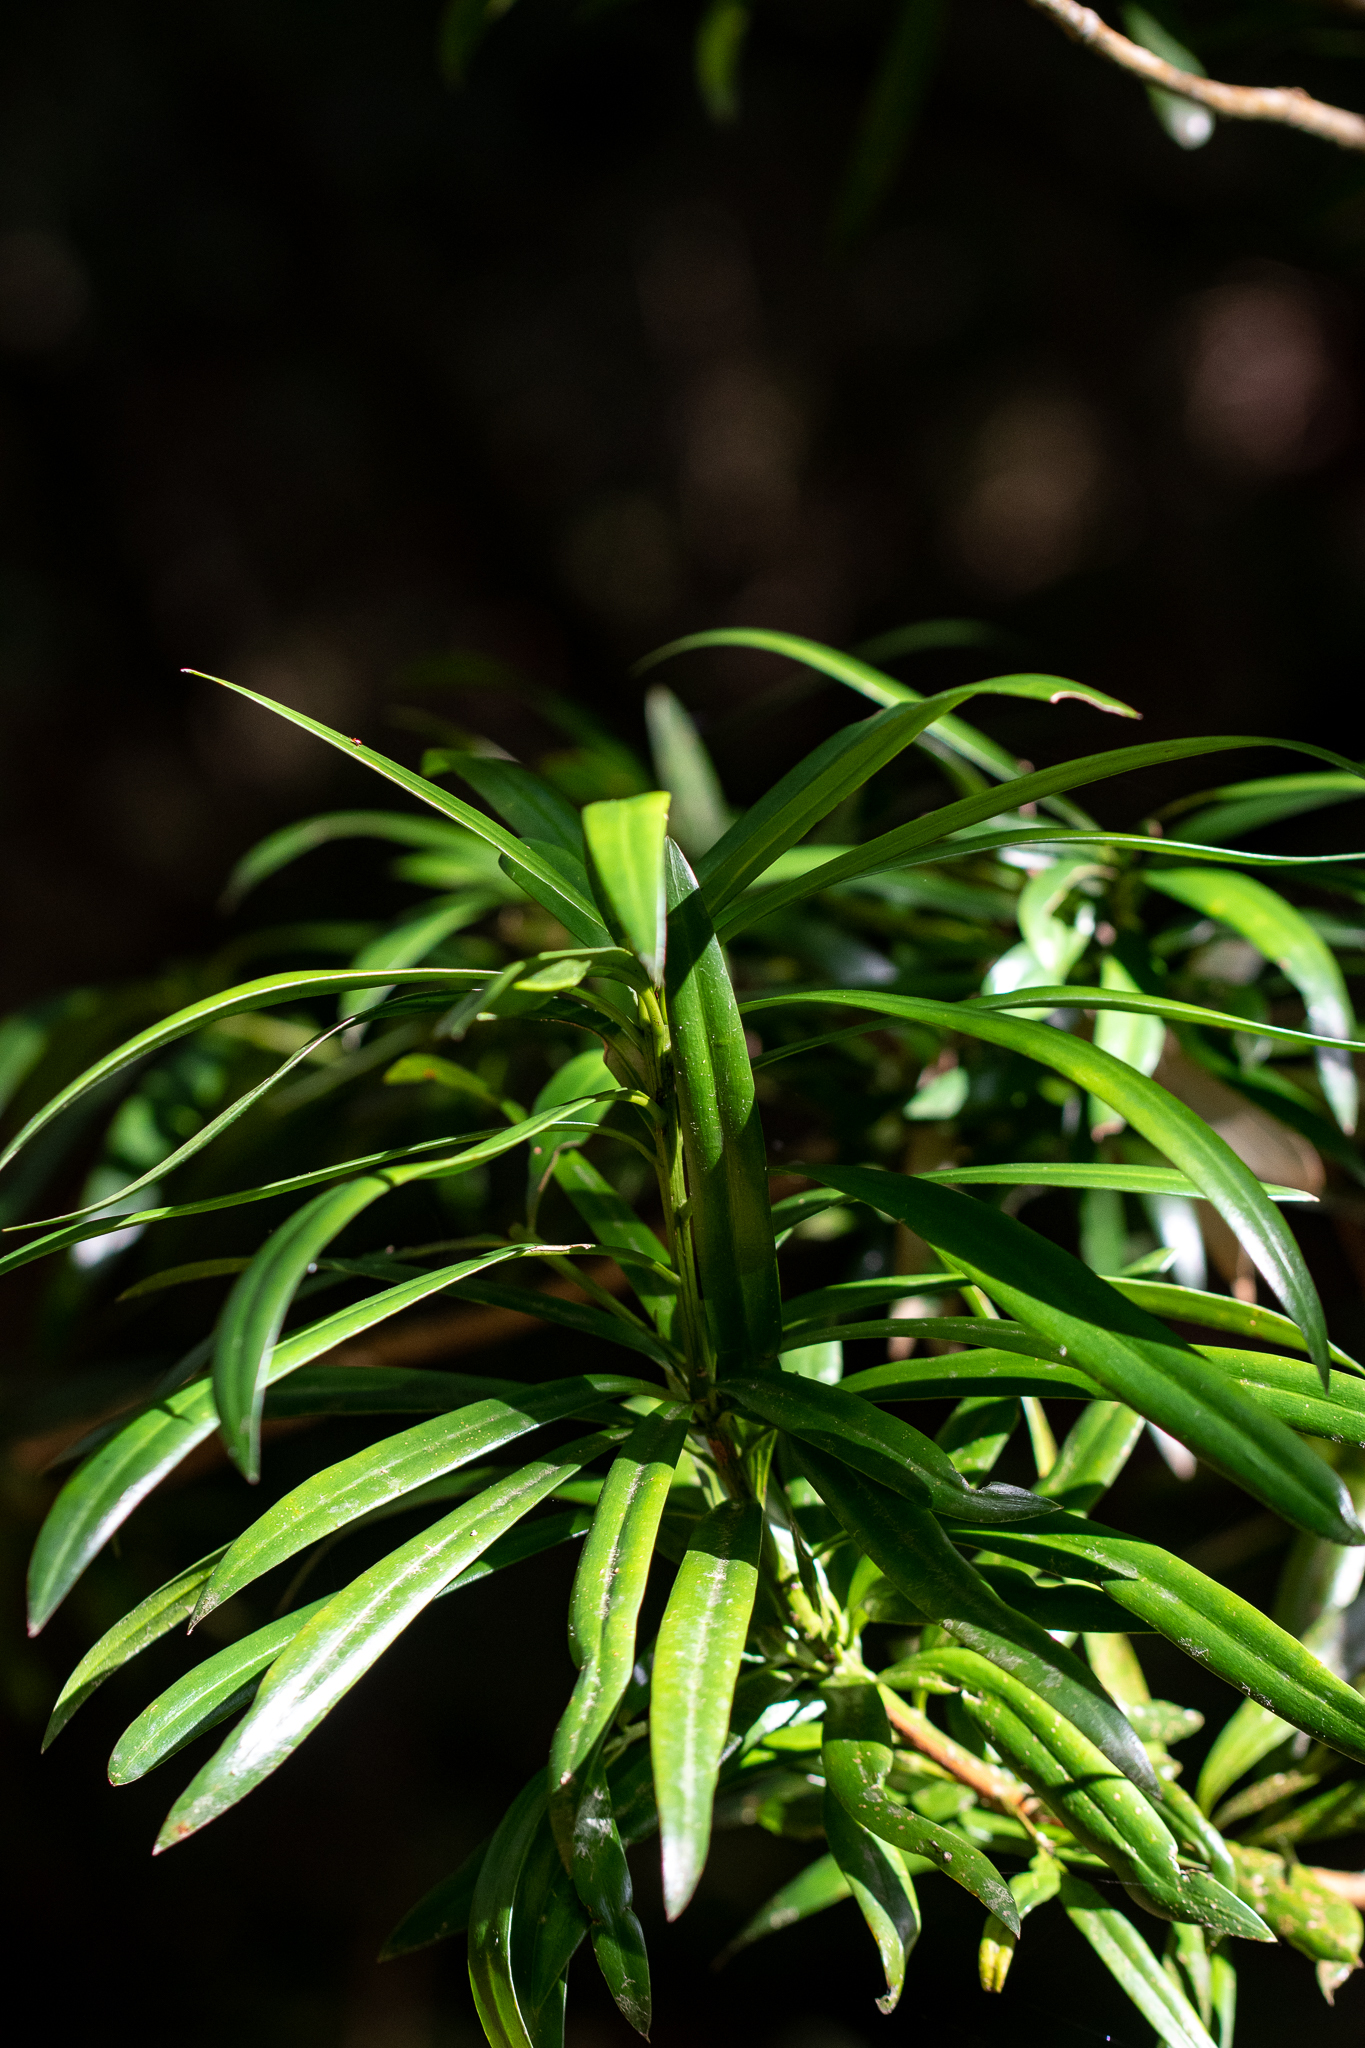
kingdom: Plantae
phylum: Tracheophyta
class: Pinopsida
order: Pinales
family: Podocarpaceae
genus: Podocarpus
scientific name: Podocarpus latifolius
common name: True yellowwood
